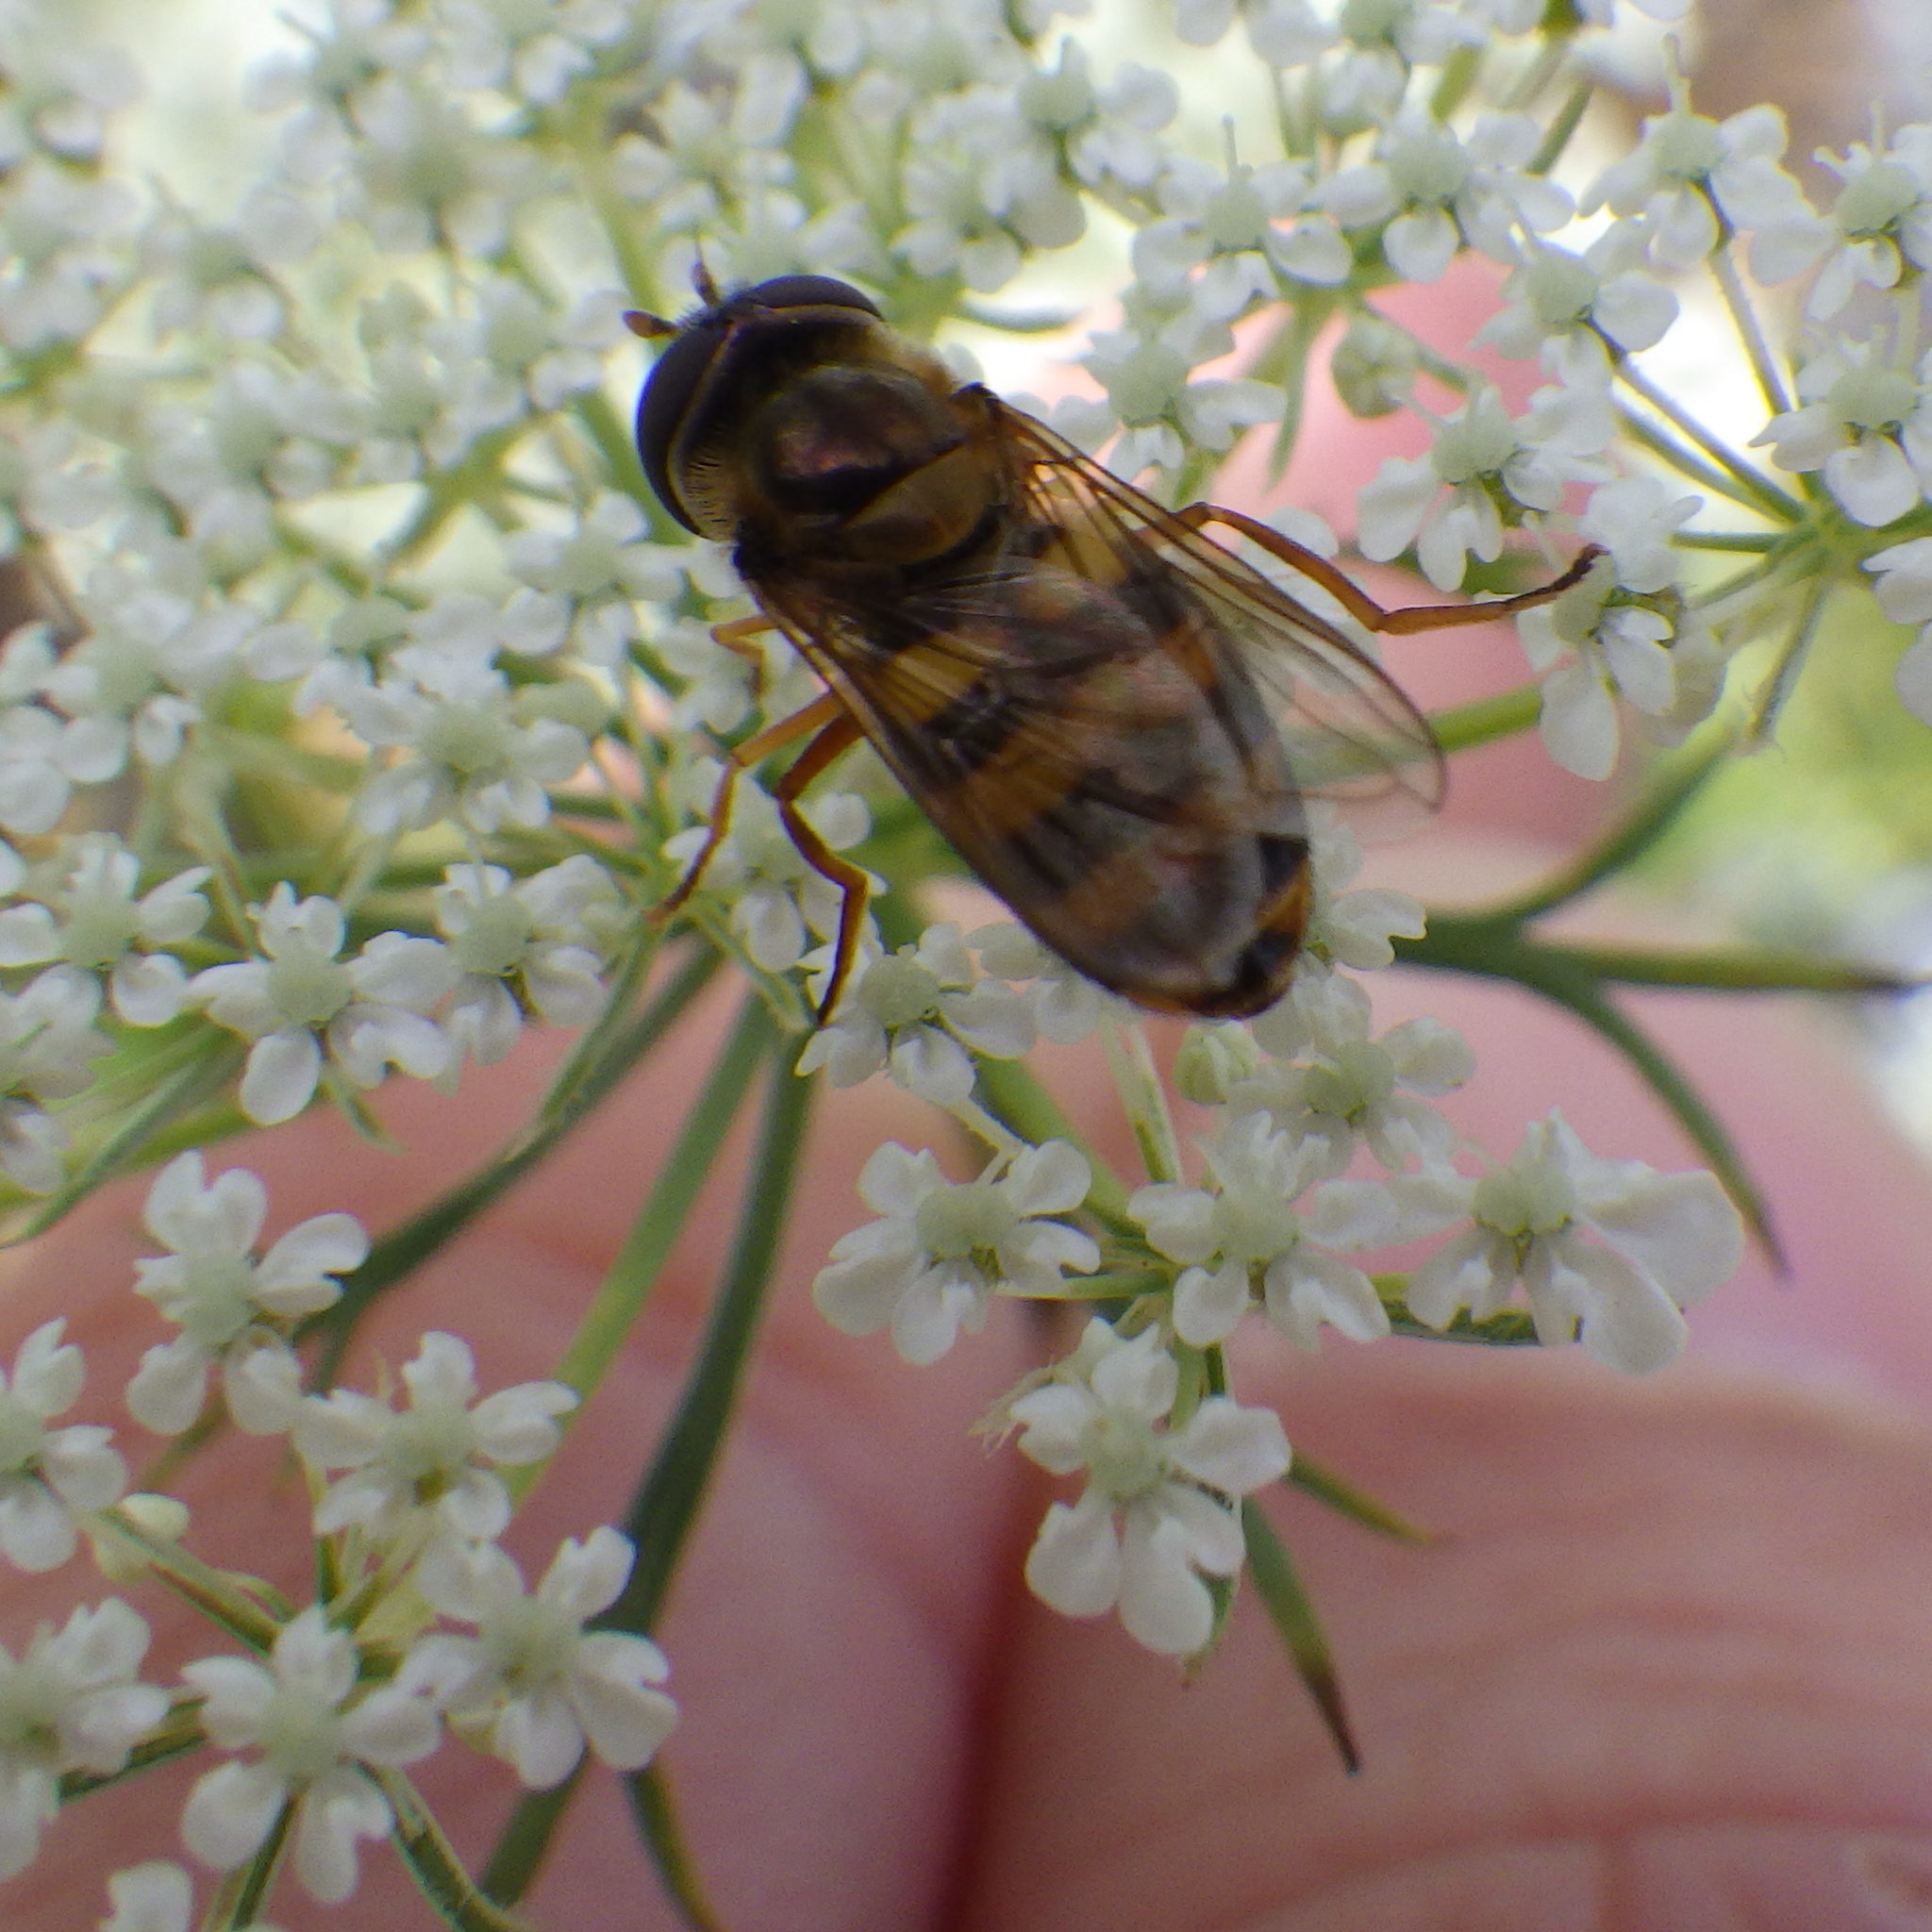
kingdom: Animalia
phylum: Arthropoda
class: Insecta
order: Diptera
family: Syrphidae
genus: Eupeodes
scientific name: Eupeodes
